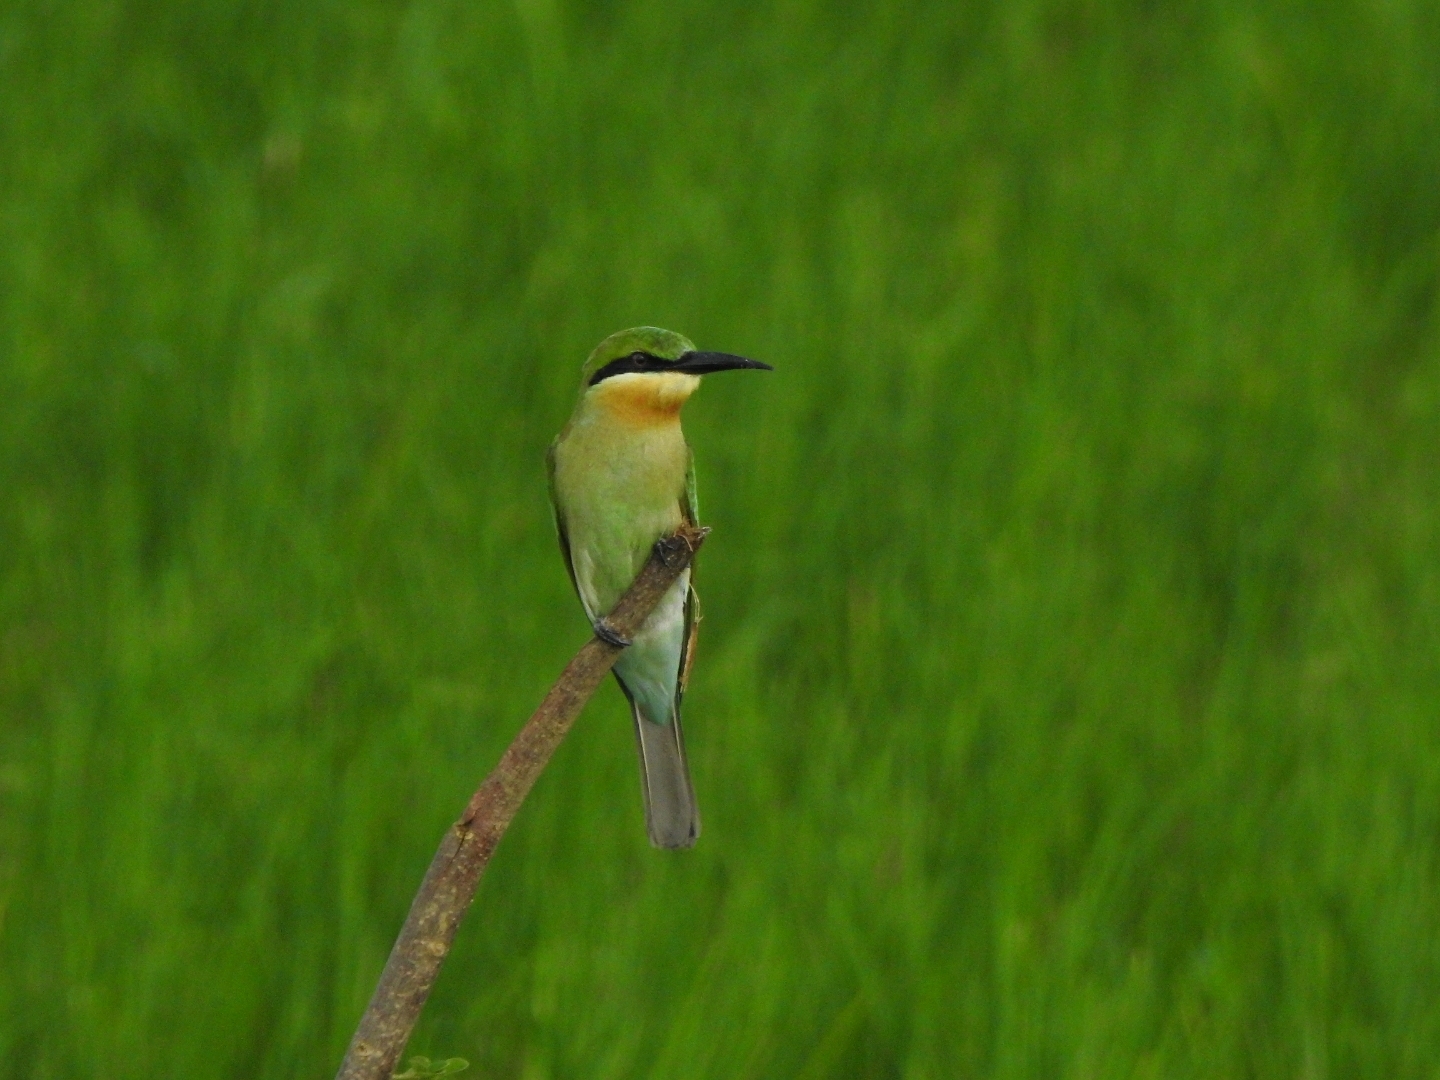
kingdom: Animalia
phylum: Chordata
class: Aves
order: Coraciiformes
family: Meropidae
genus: Merops
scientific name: Merops philippinus
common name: Blue-tailed bee-eater
